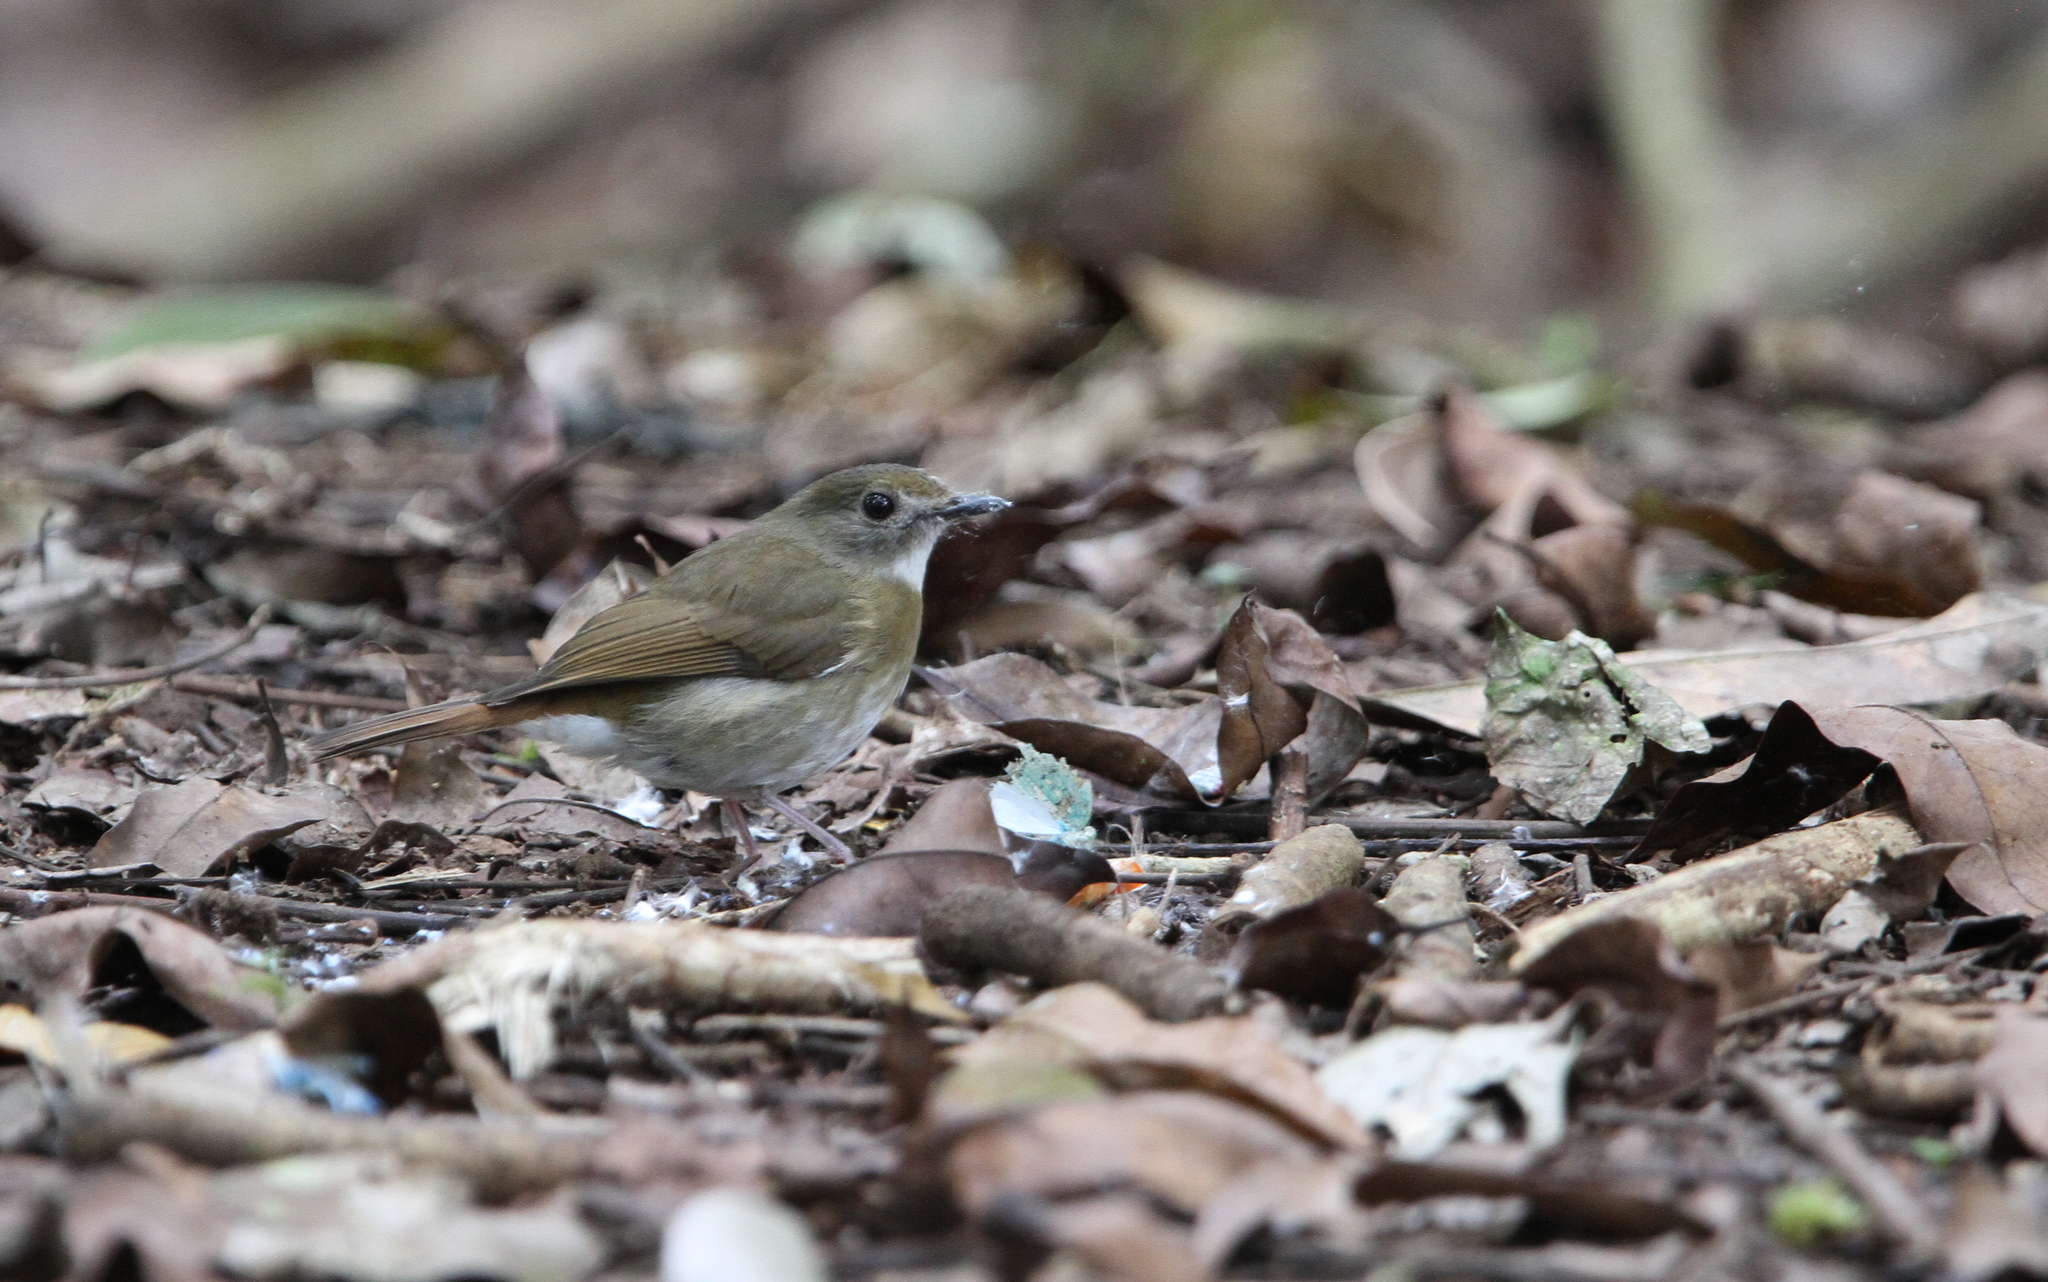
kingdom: Animalia
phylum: Chordata
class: Aves
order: Passeriformes
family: Muscicapidae
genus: Rhinomyias
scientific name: Rhinomyias olivaceus
